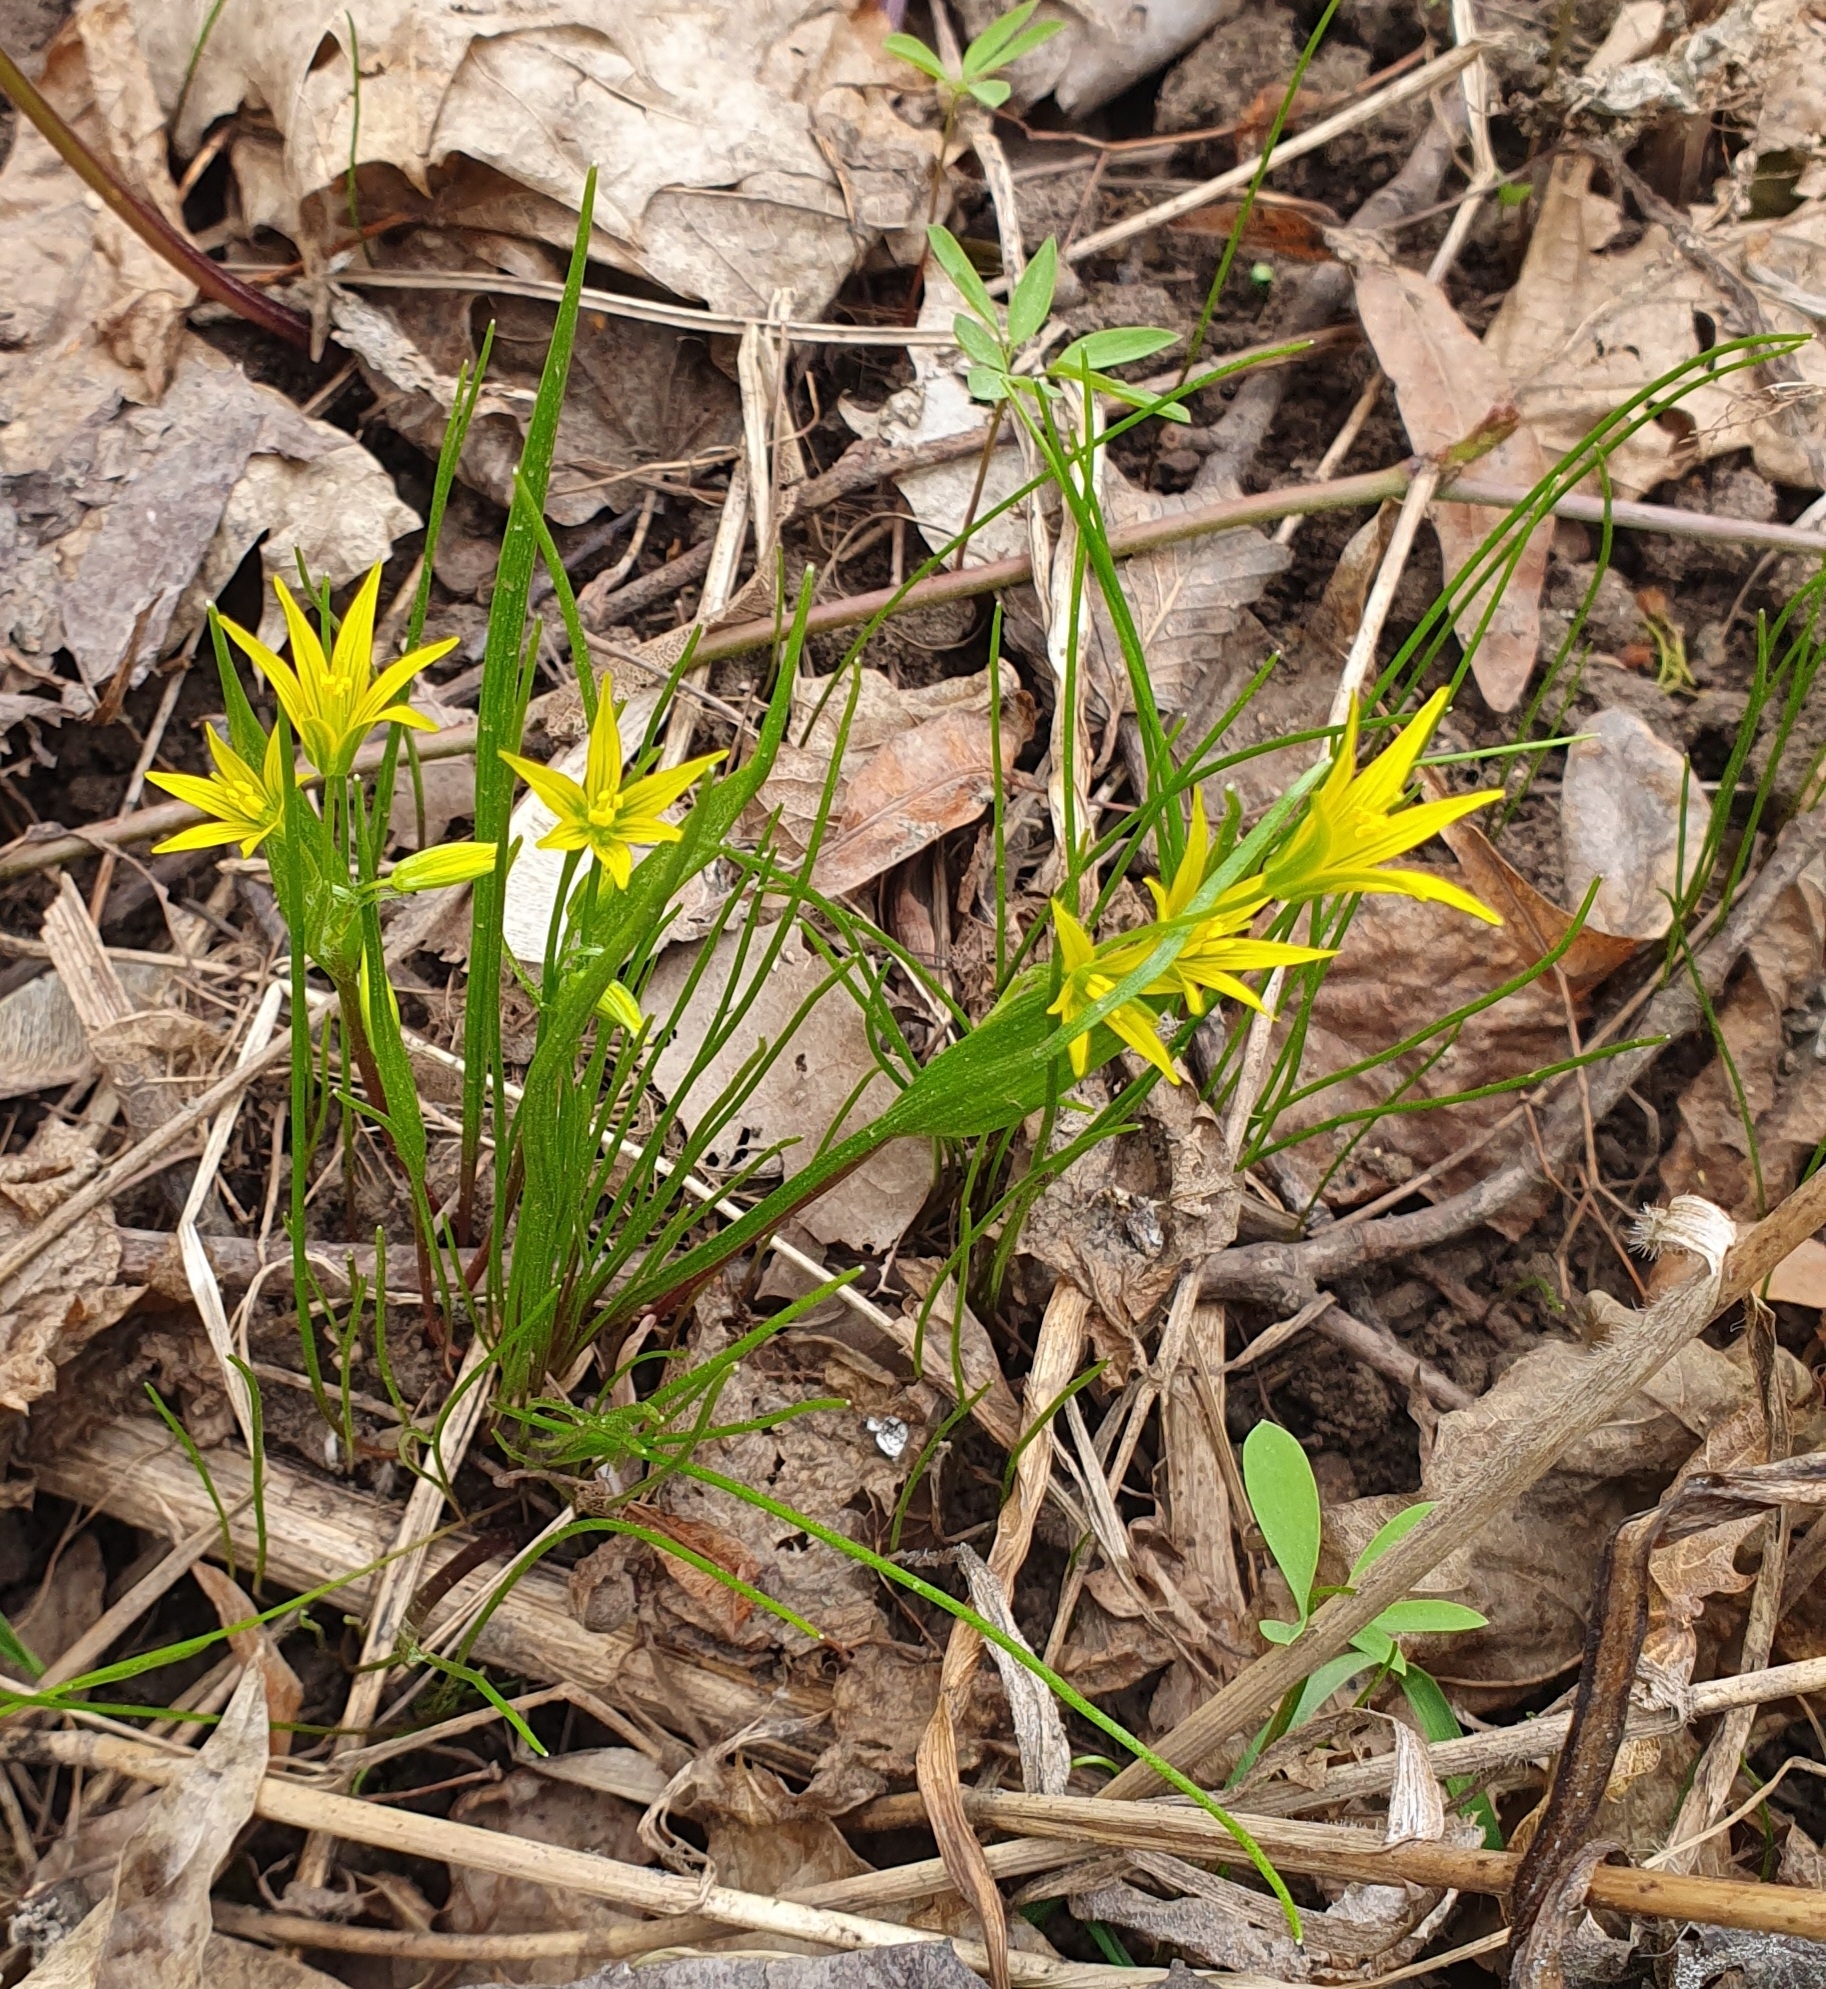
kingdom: Plantae
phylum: Tracheophyta
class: Liliopsida
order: Liliales
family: Liliaceae
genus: Gagea
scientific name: Gagea minima
